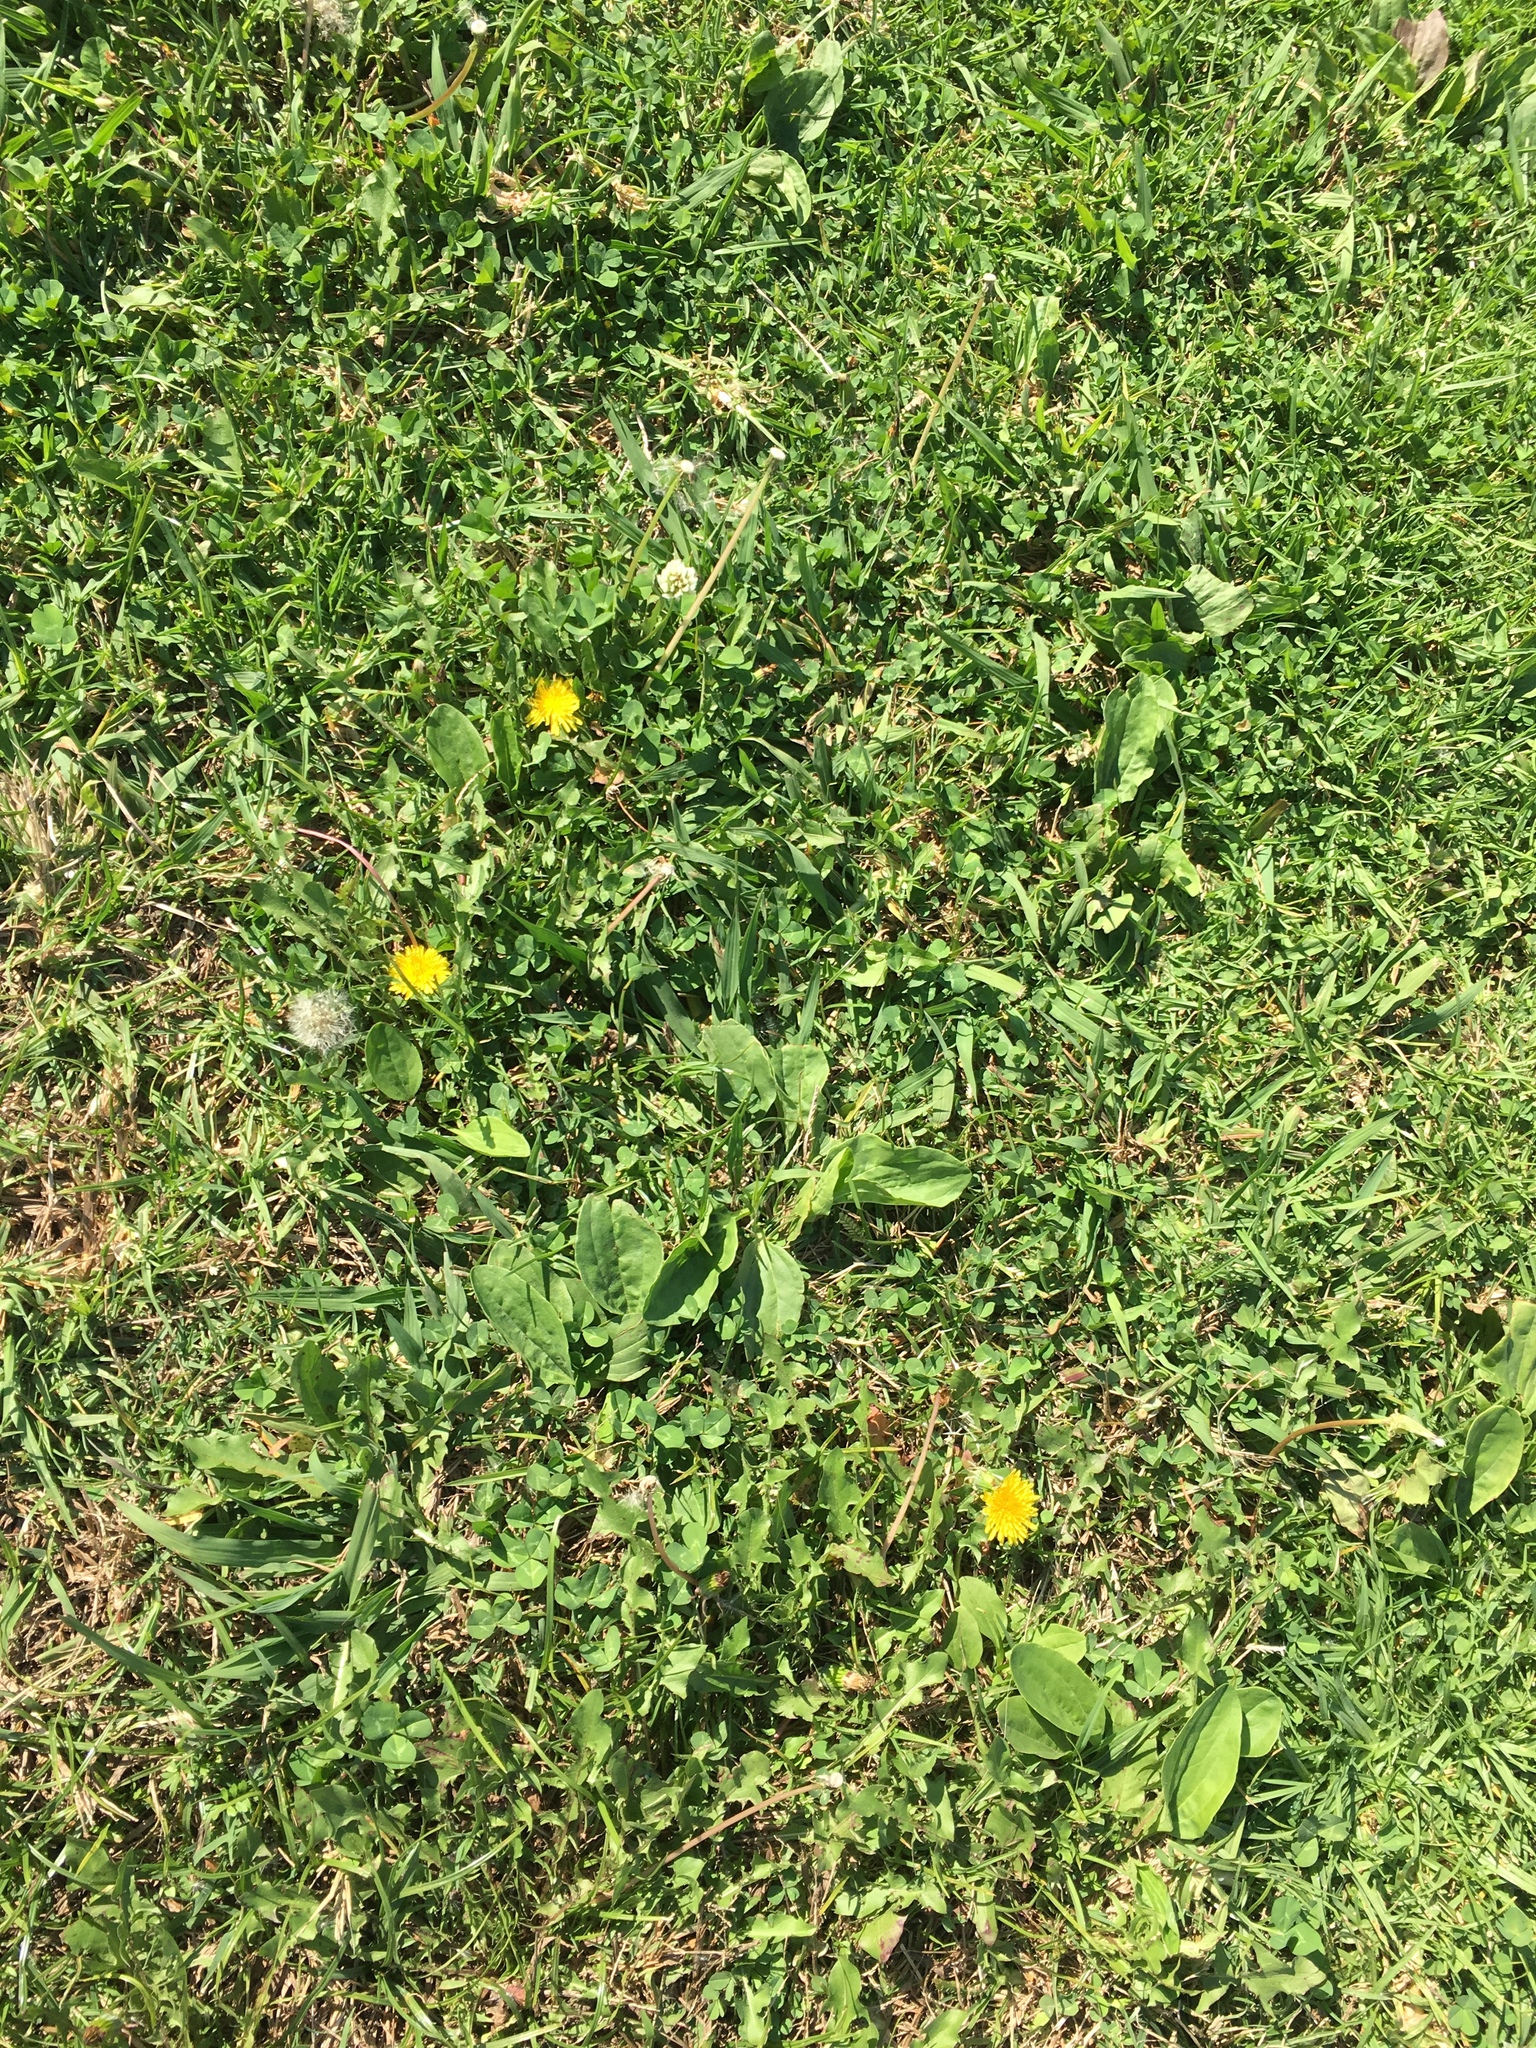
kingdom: Plantae
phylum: Tracheophyta
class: Magnoliopsida
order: Asterales
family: Asteraceae
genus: Taraxacum
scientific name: Taraxacum officinale
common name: Common dandelion
